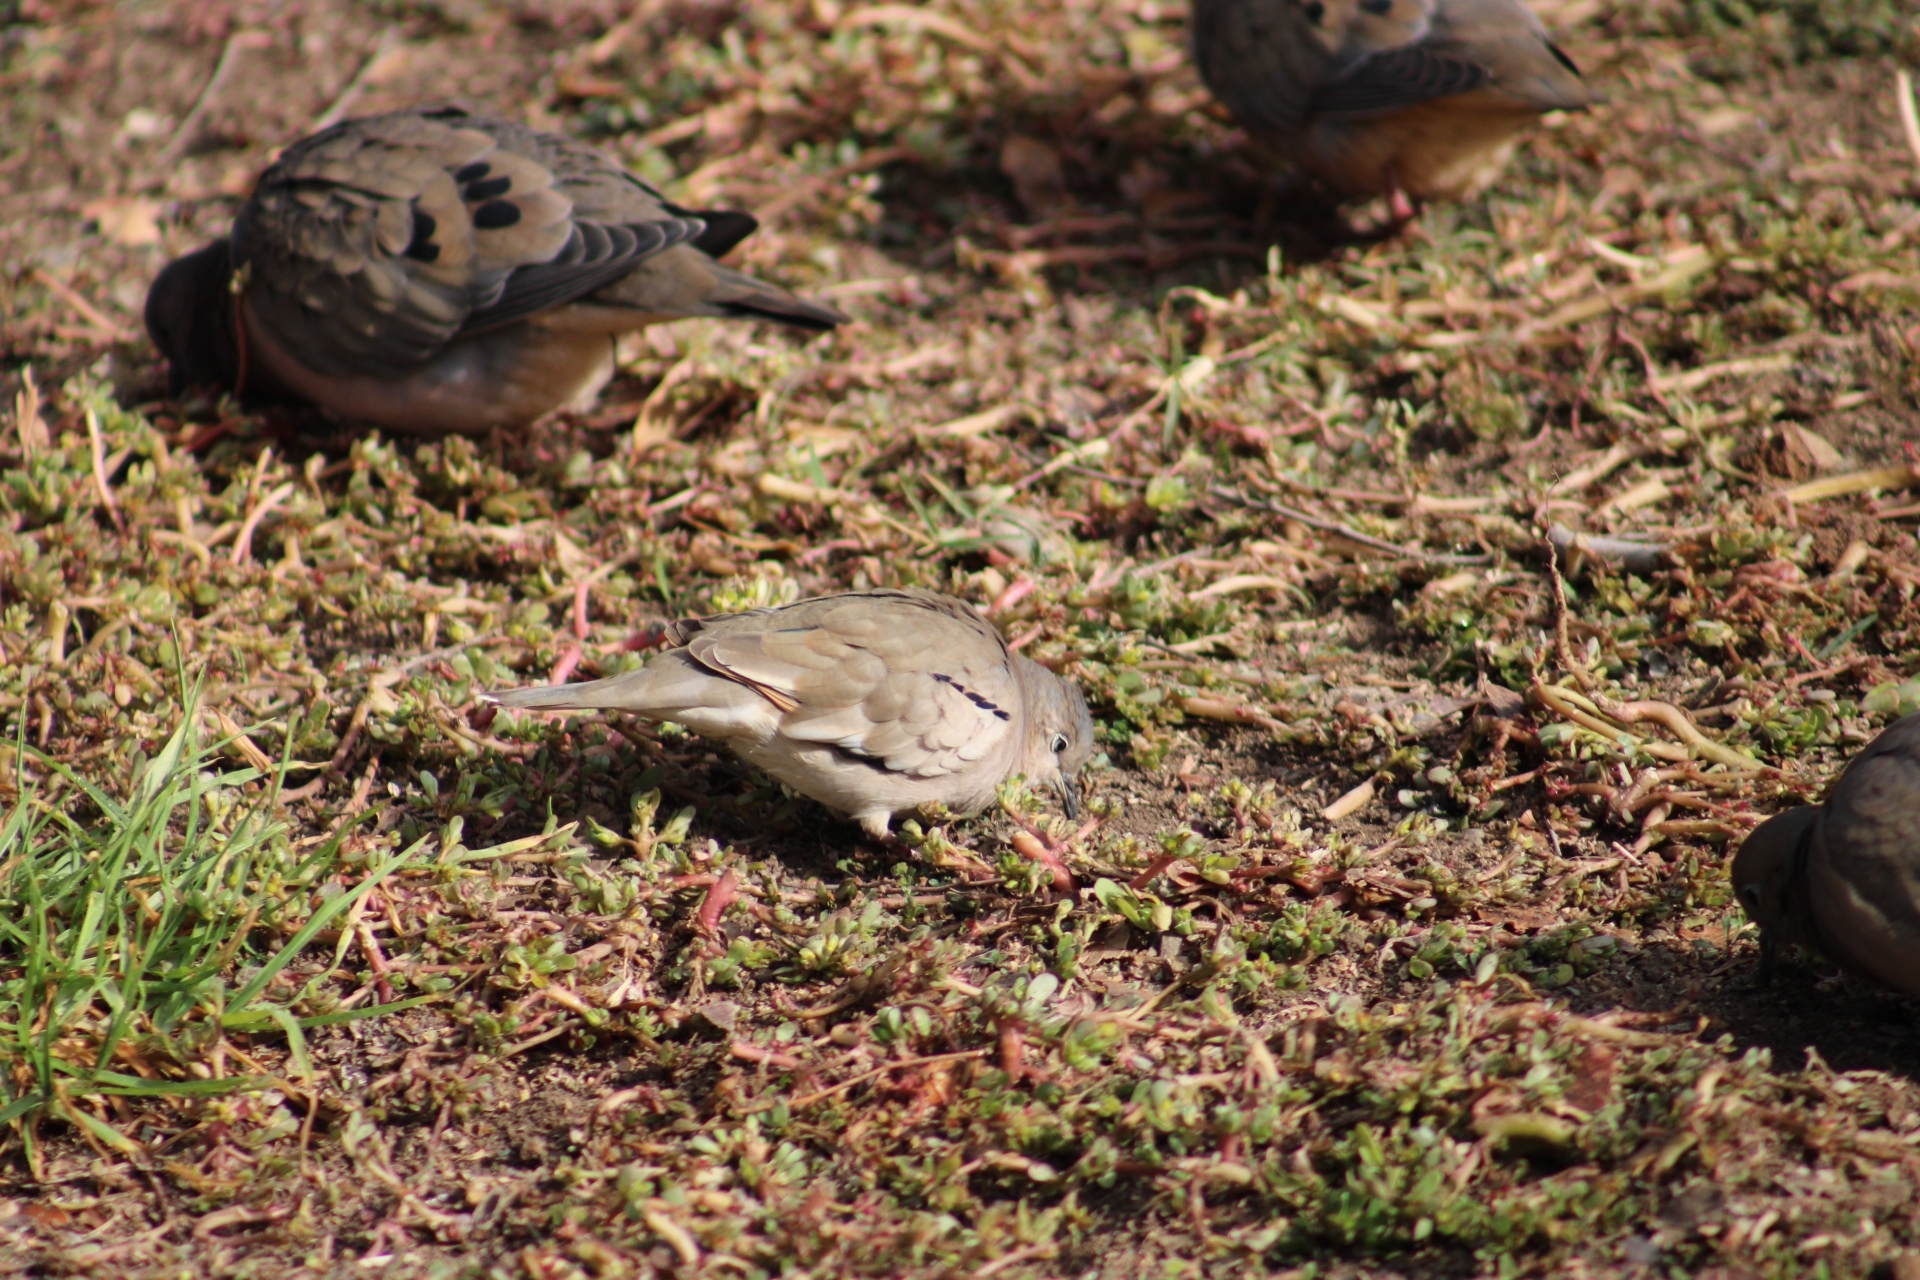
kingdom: Animalia
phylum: Chordata
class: Aves
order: Columbiformes
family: Columbidae
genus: Columbina
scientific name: Columbina picui
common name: Picui ground dove
